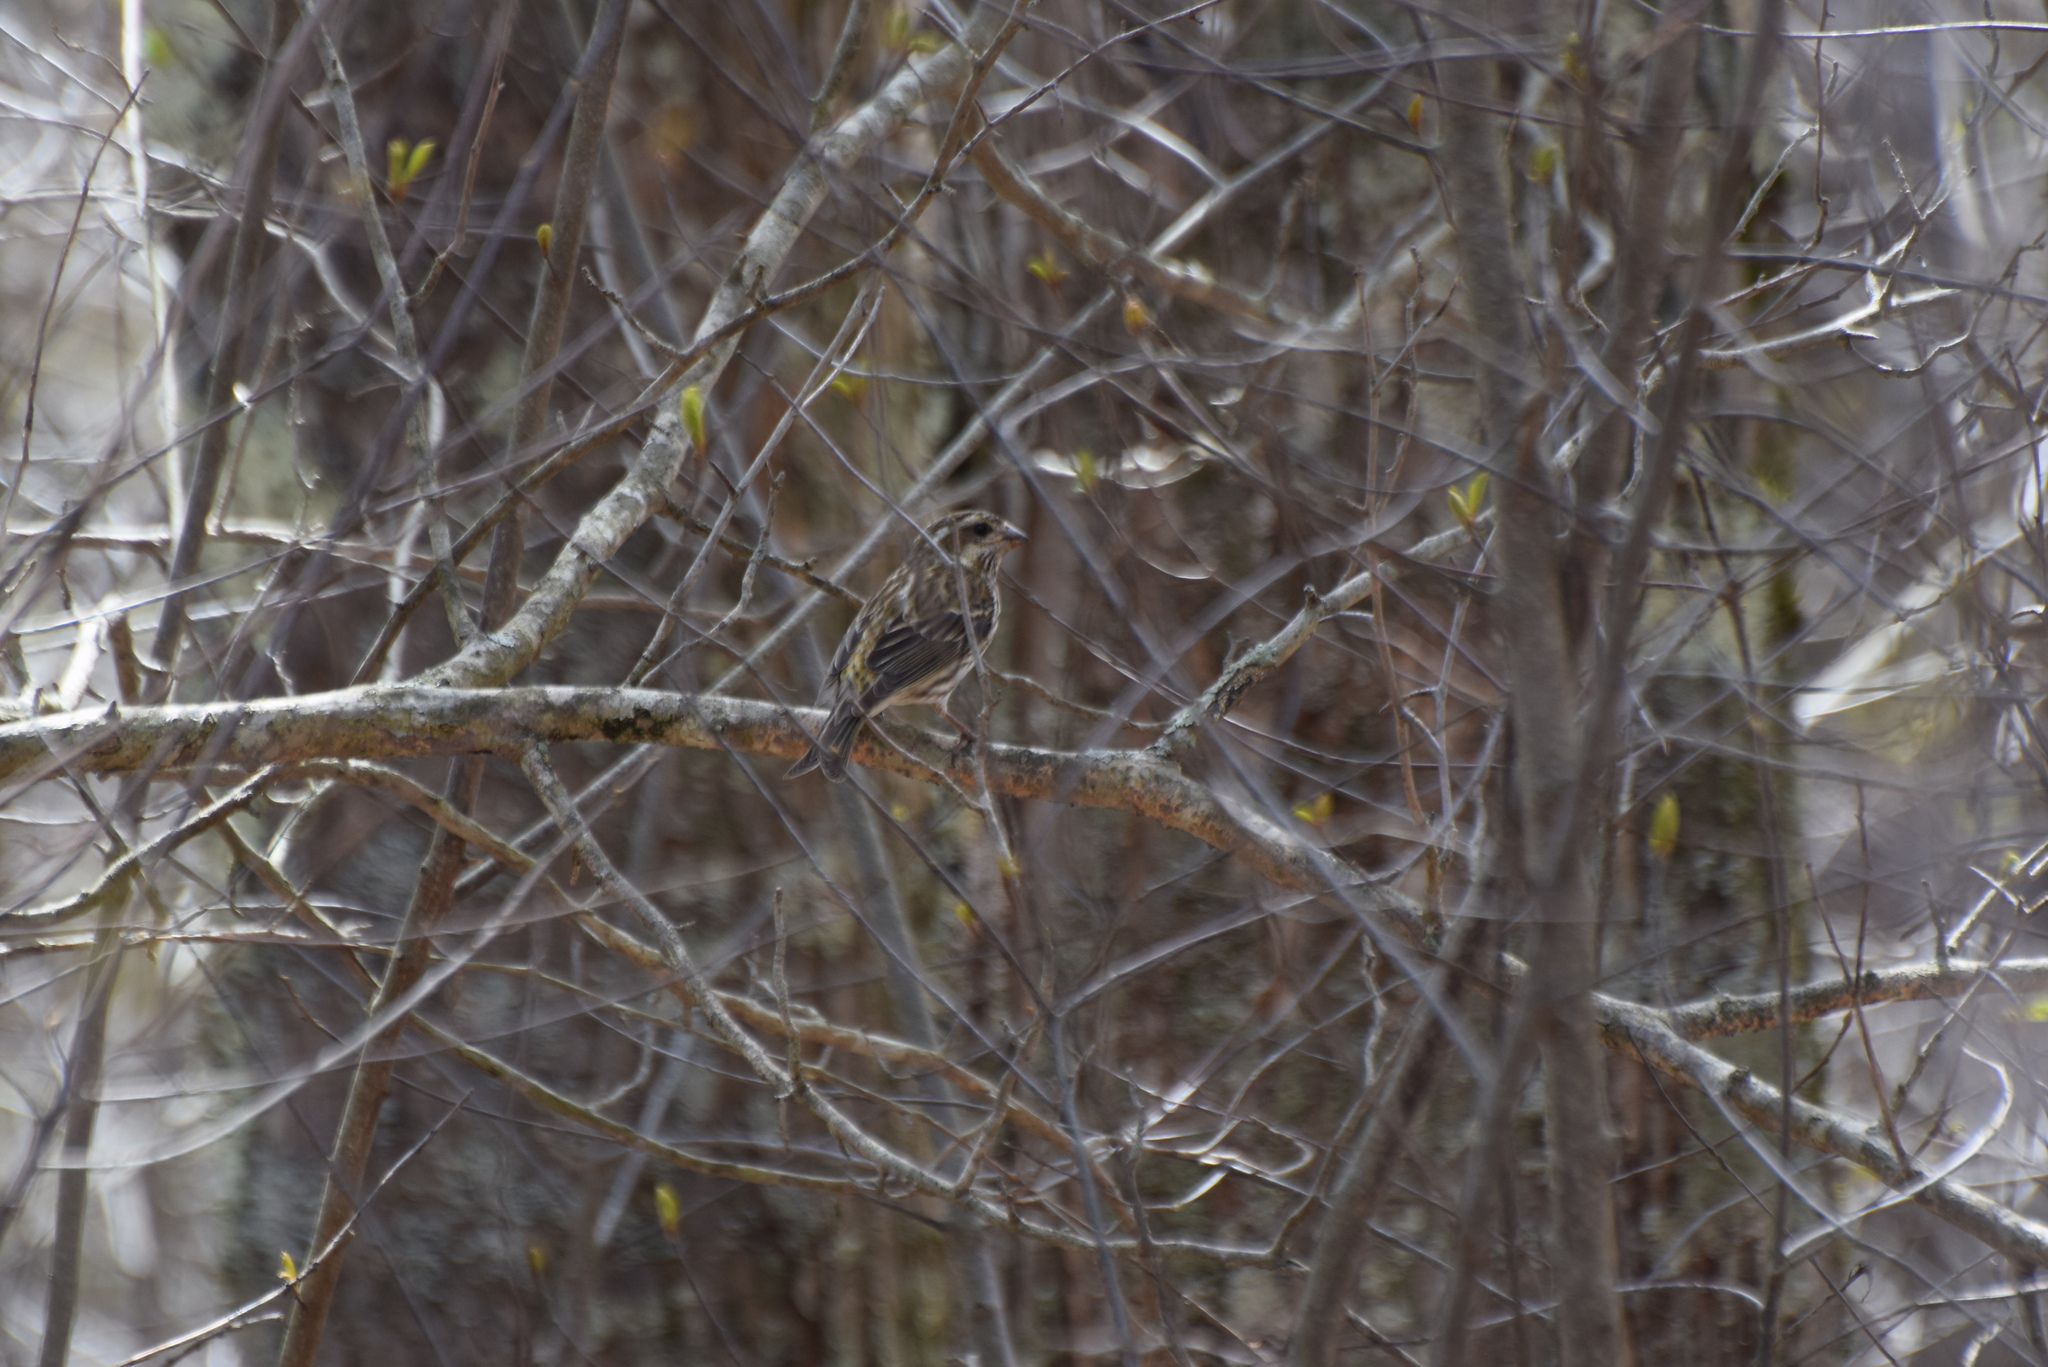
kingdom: Animalia
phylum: Chordata
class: Aves
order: Passeriformes
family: Fringillidae
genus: Haemorhous
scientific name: Haemorhous purpureus
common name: Purple finch
